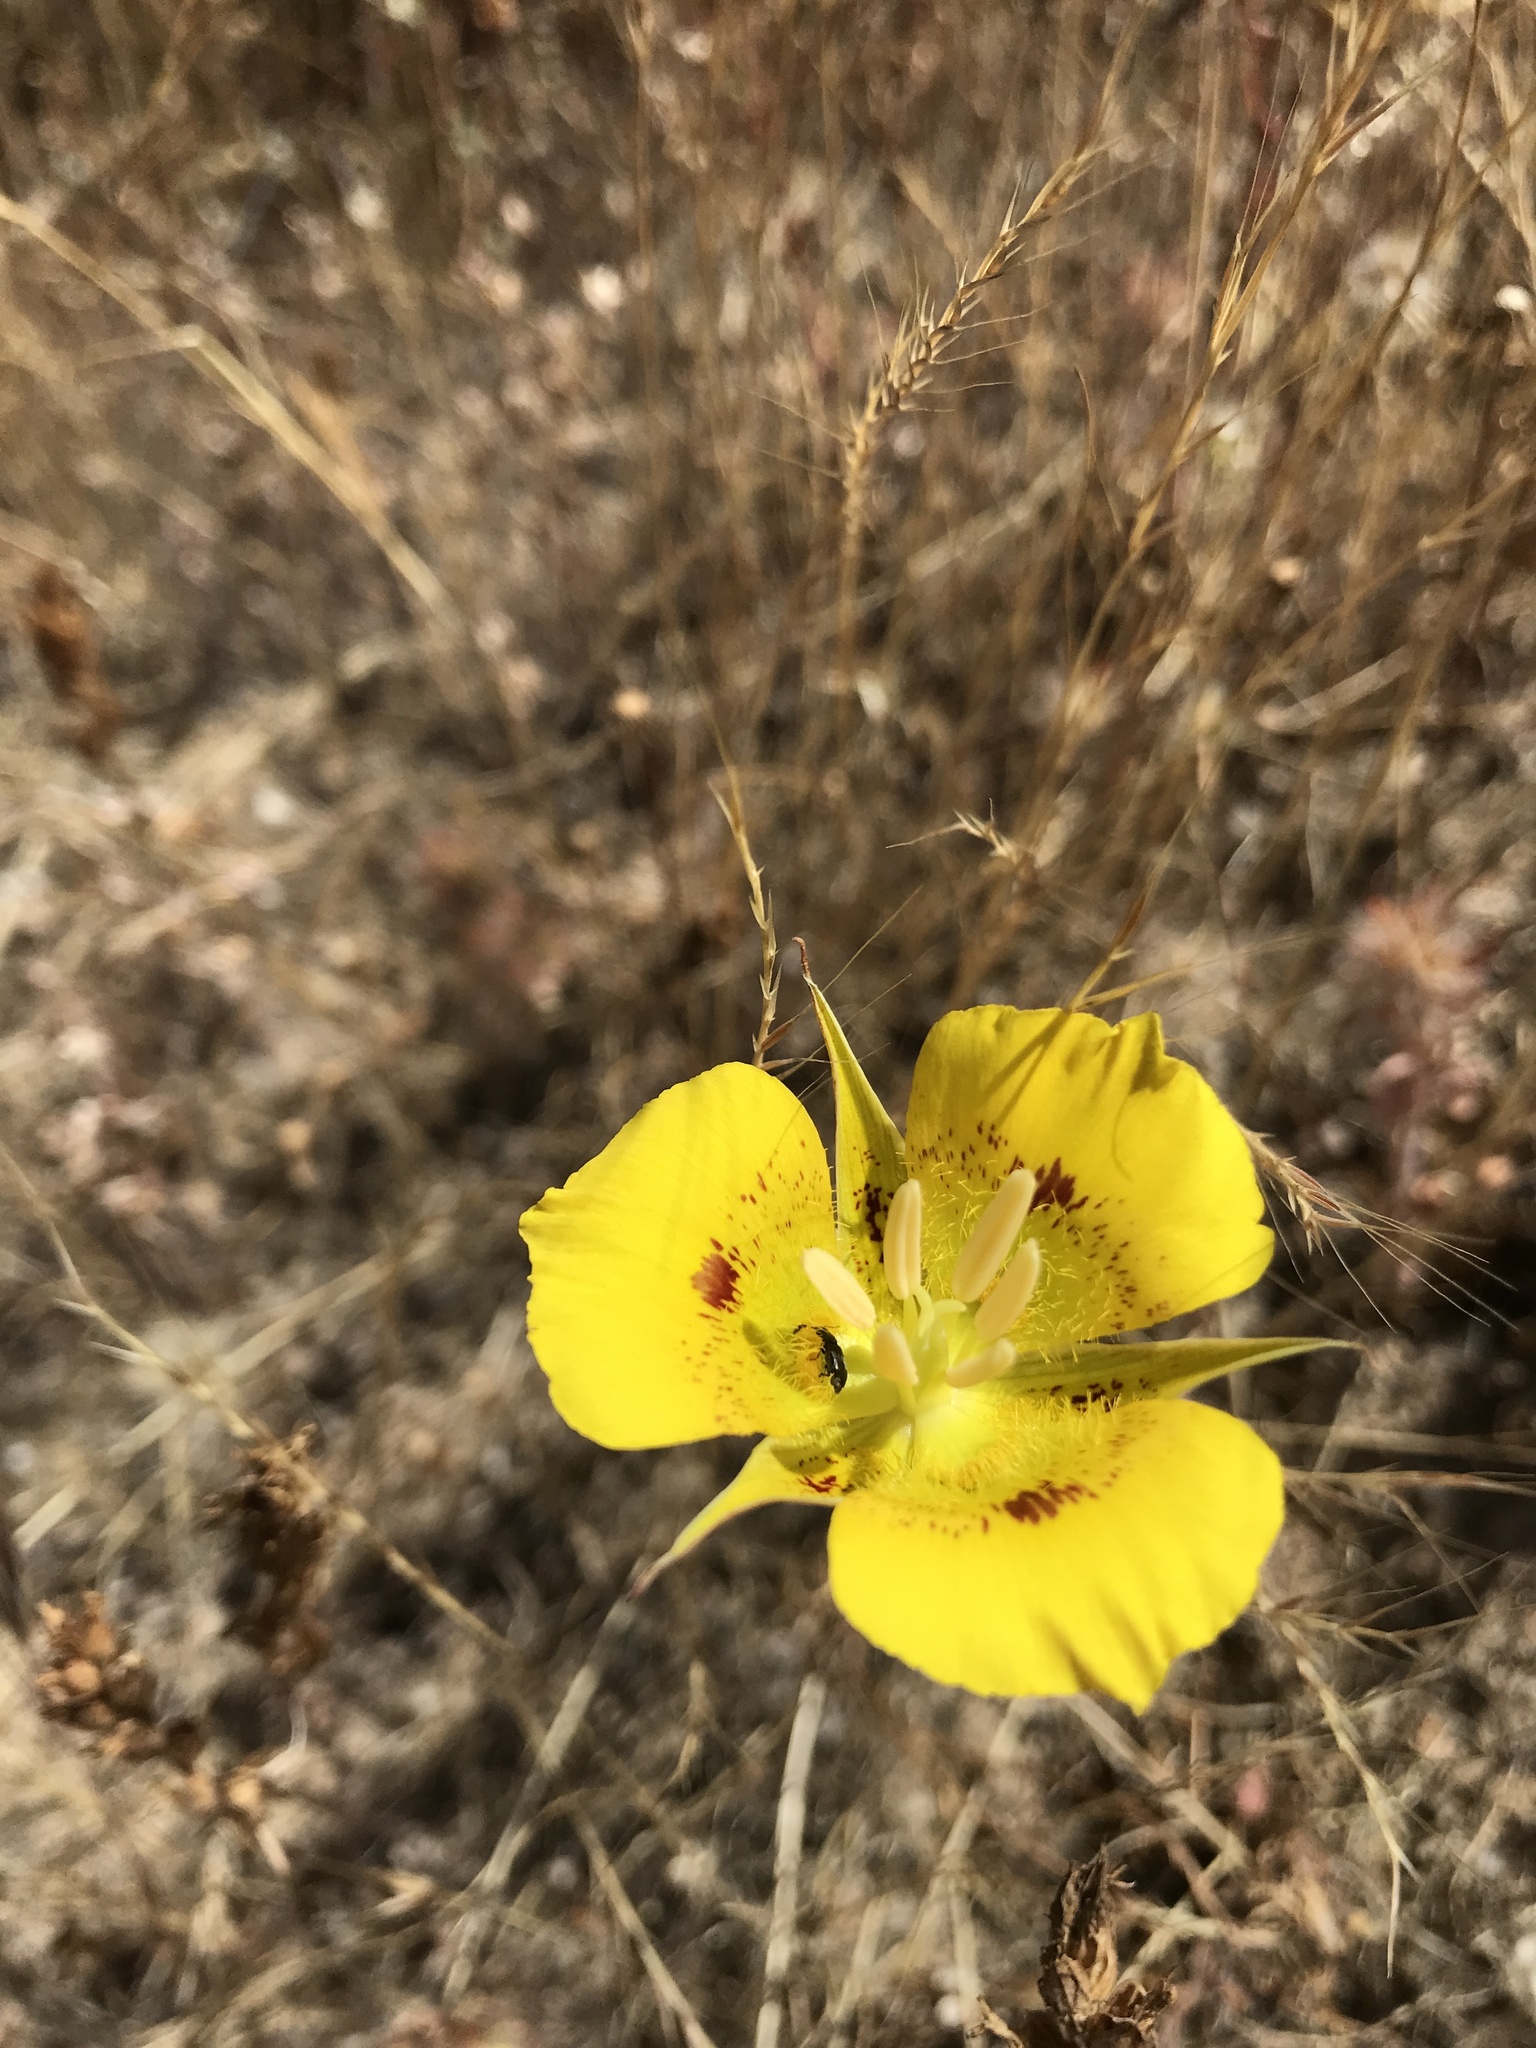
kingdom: Plantae
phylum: Tracheophyta
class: Liliopsida
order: Liliales
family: Liliaceae
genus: Calochortus
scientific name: Calochortus luteus
